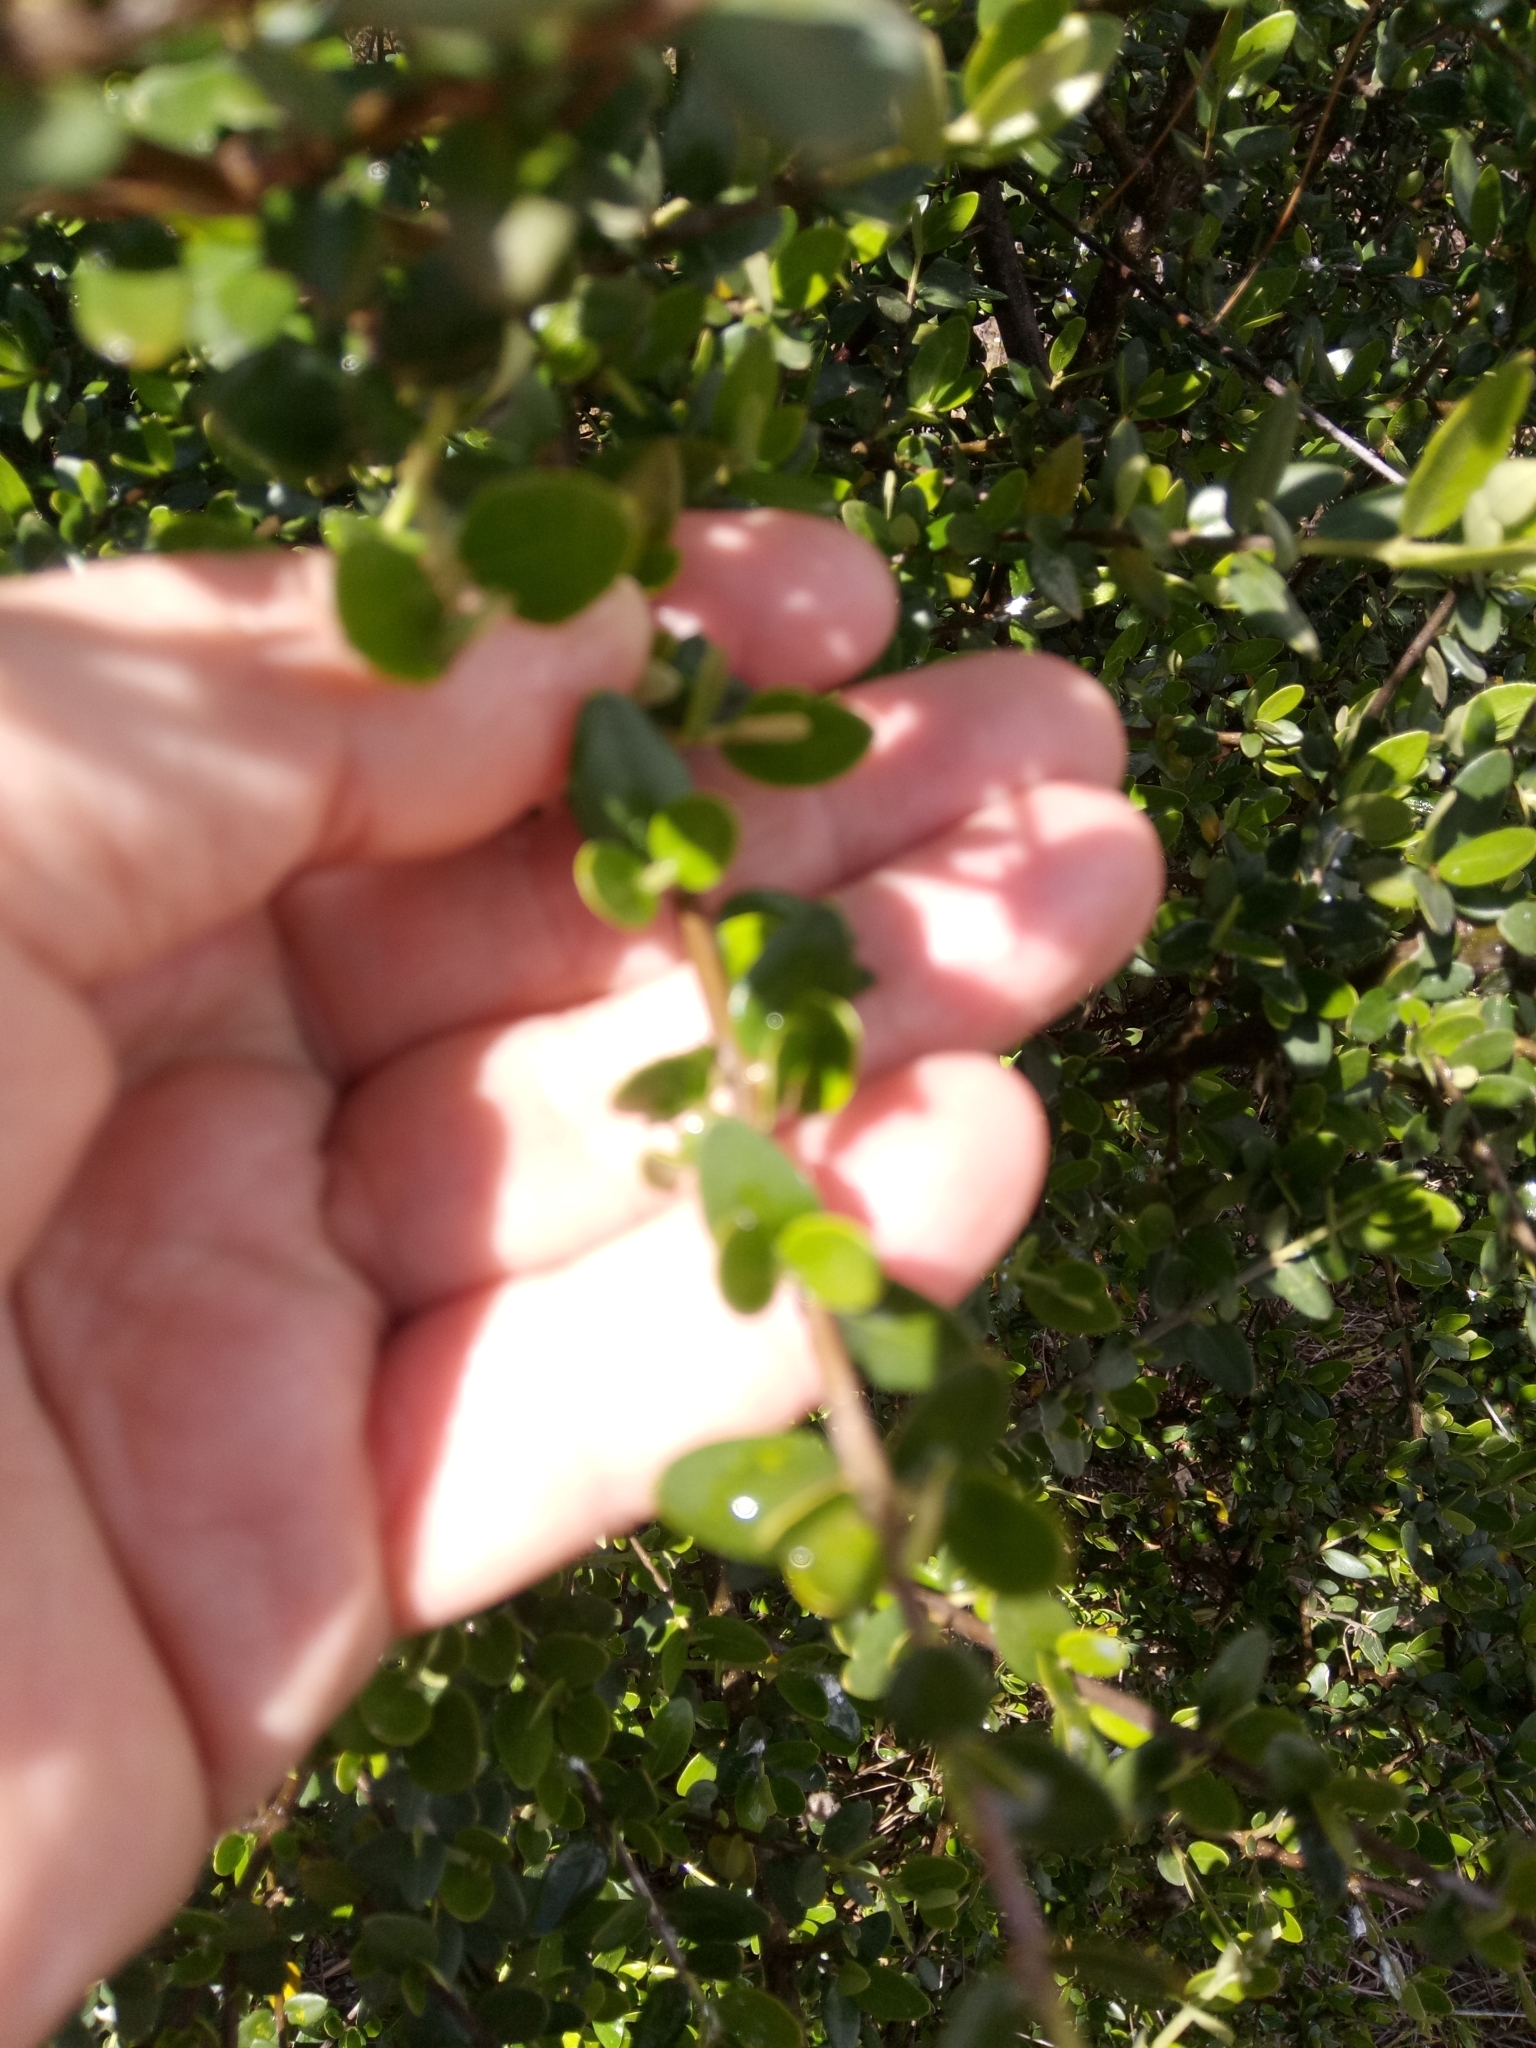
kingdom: Plantae
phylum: Tracheophyta
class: Magnoliopsida
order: Lamiales
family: Oleaceae
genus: Olea
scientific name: Olea europaea
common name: Olive
